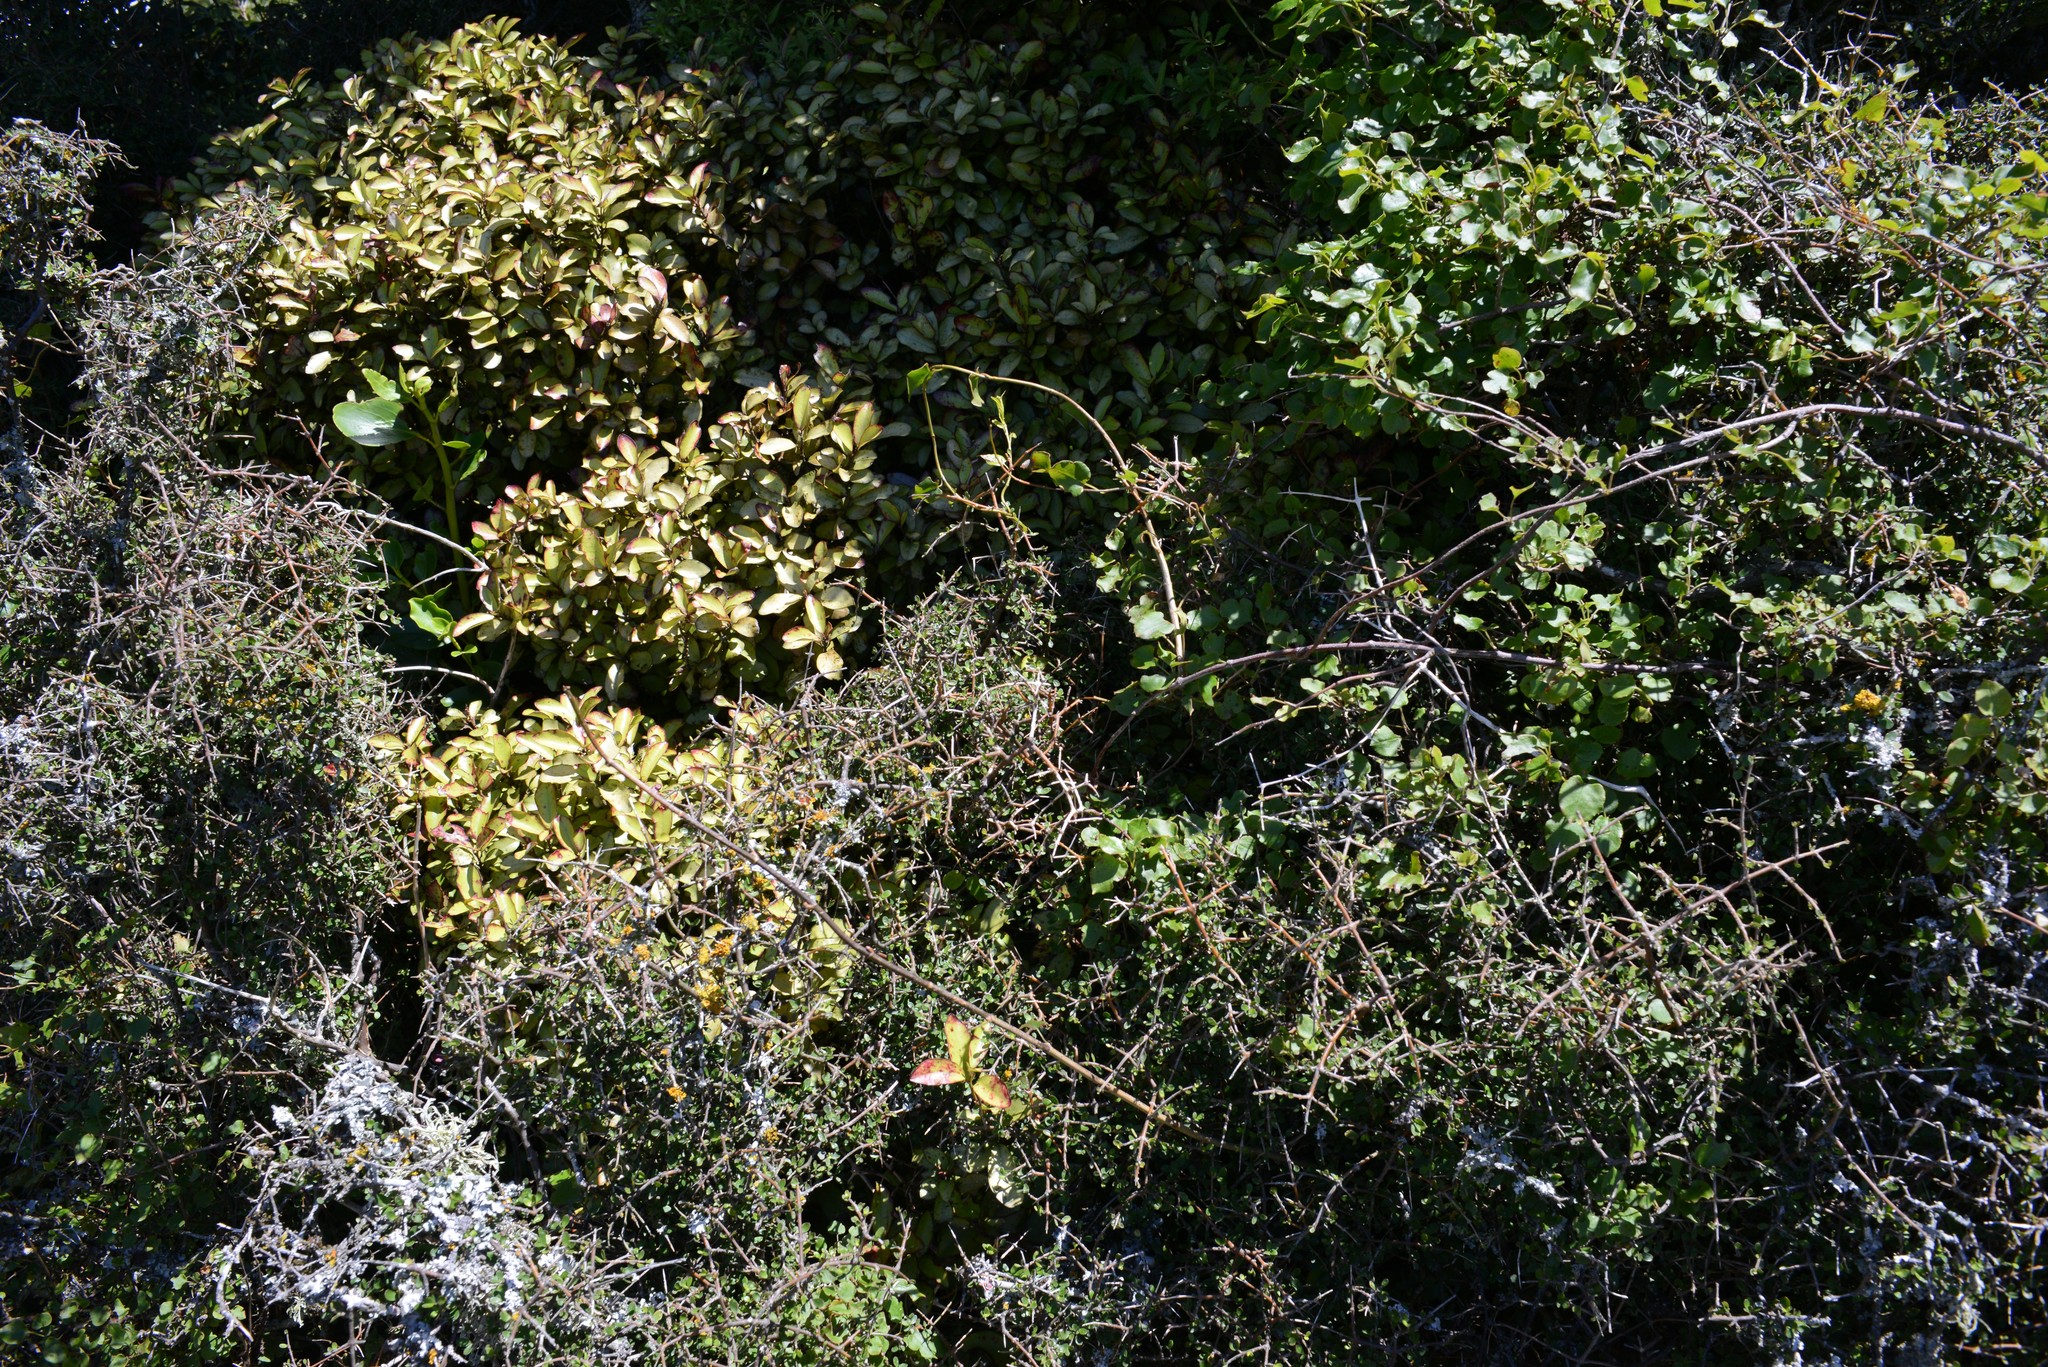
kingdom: Plantae
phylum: Tracheophyta
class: Magnoliopsida
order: Caryophyllales
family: Polygonaceae
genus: Muehlenbeckia
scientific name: Muehlenbeckia australis
